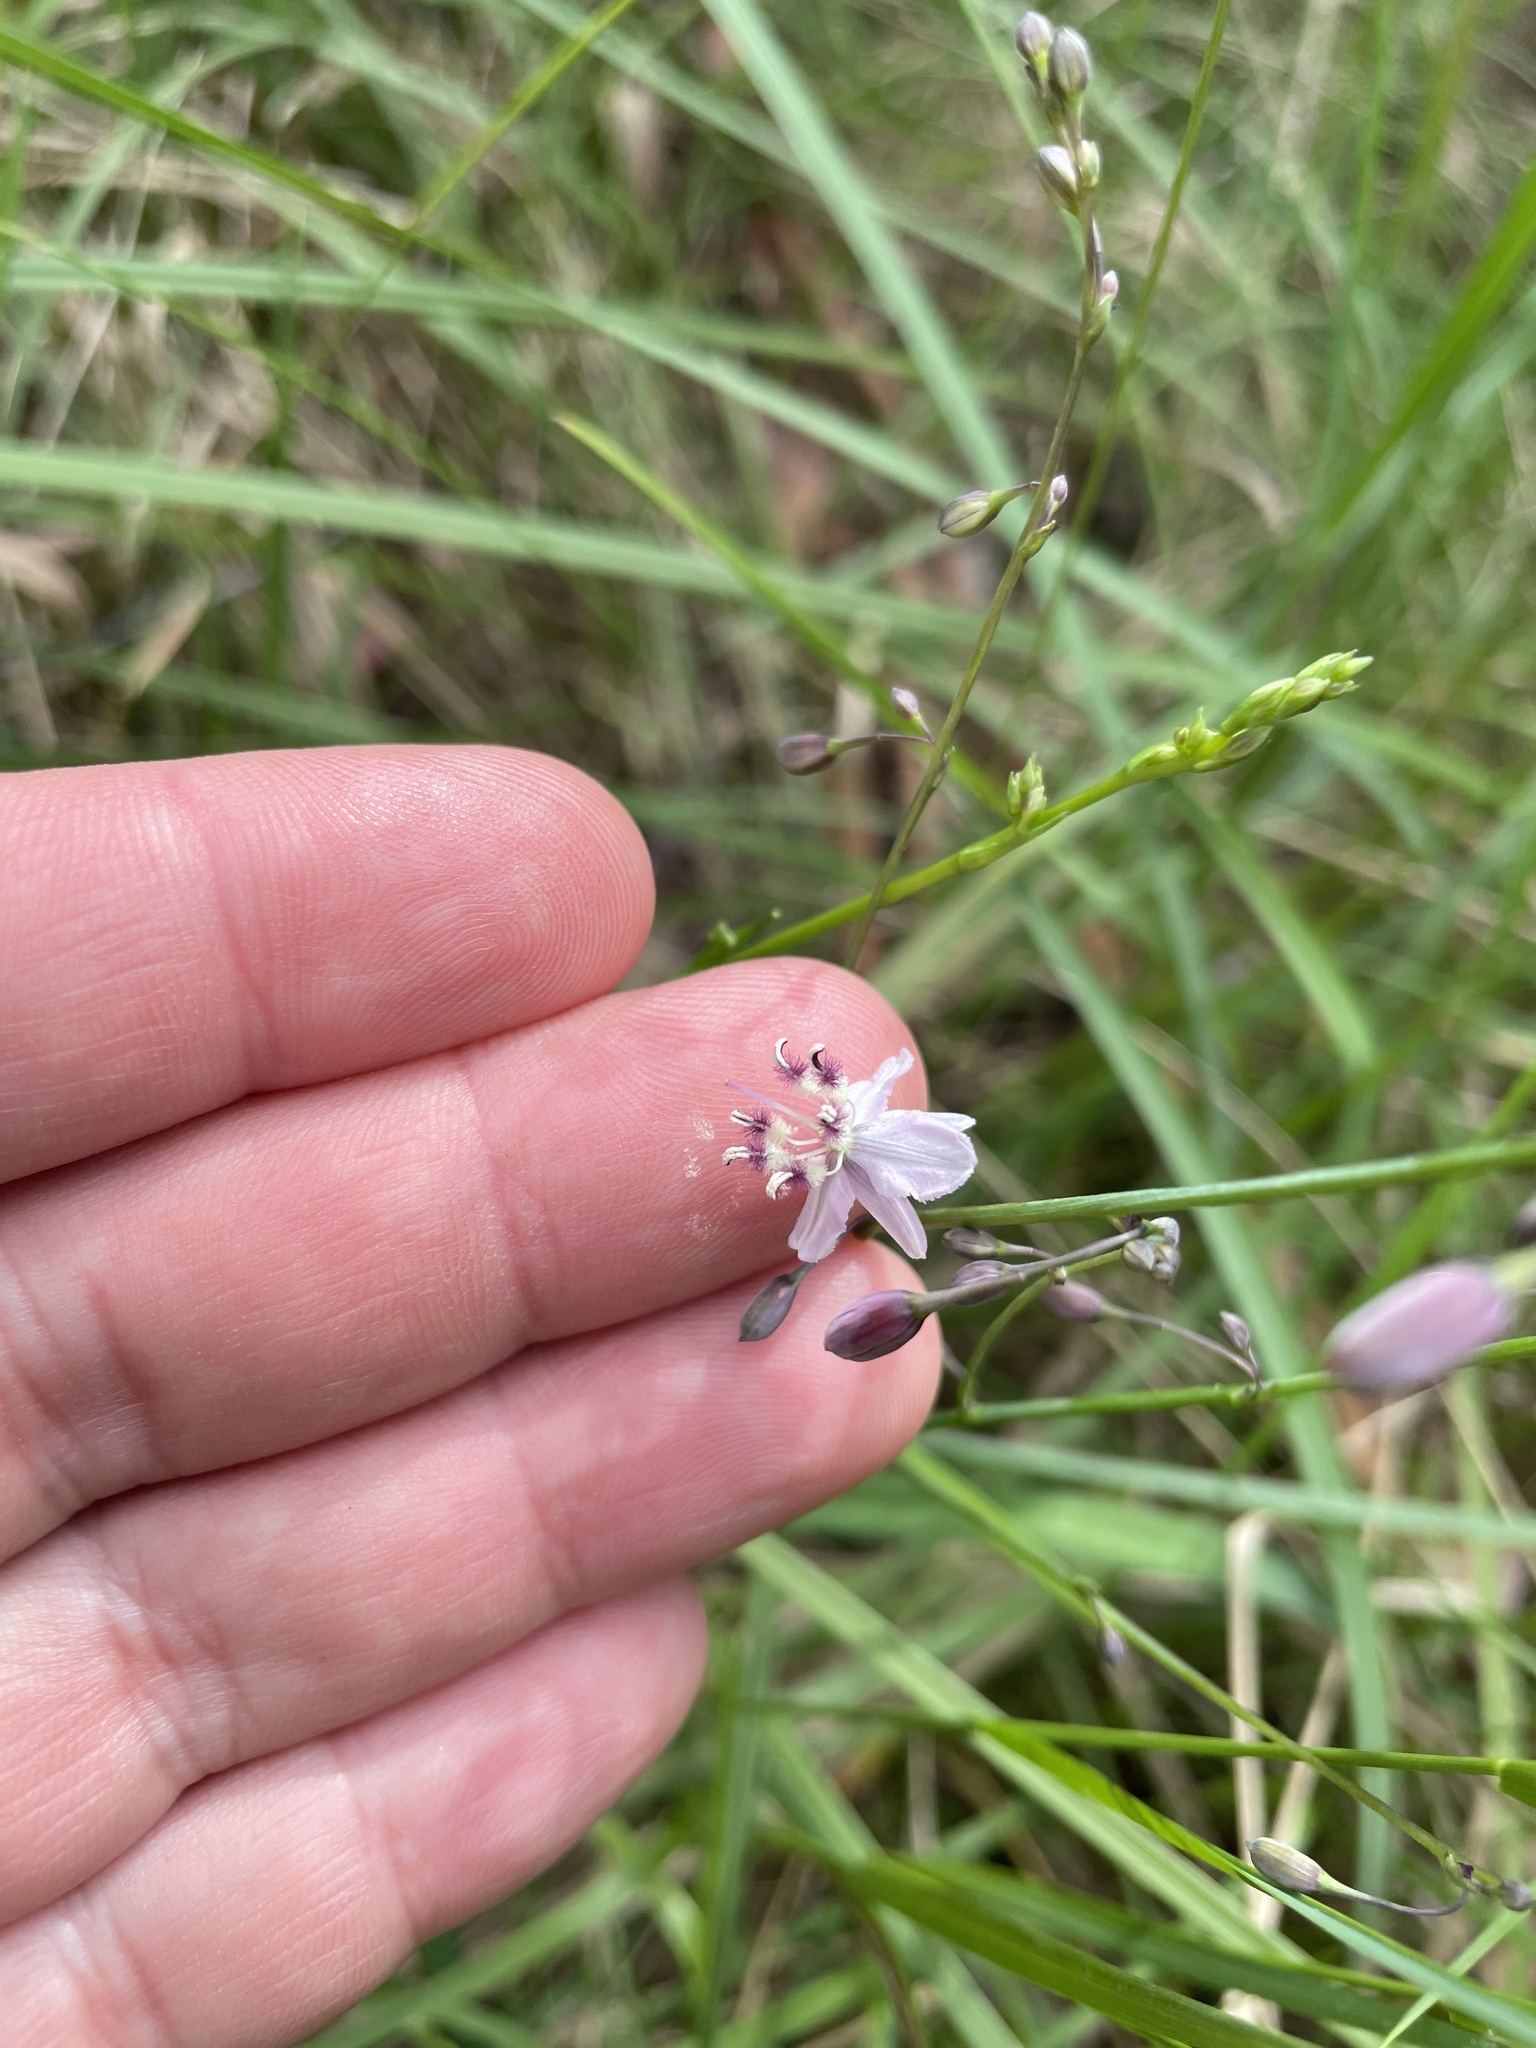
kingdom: Plantae
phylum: Tracheophyta
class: Liliopsida
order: Asparagales
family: Asparagaceae
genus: Arthropodium
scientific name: Arthropodium milleflorum
